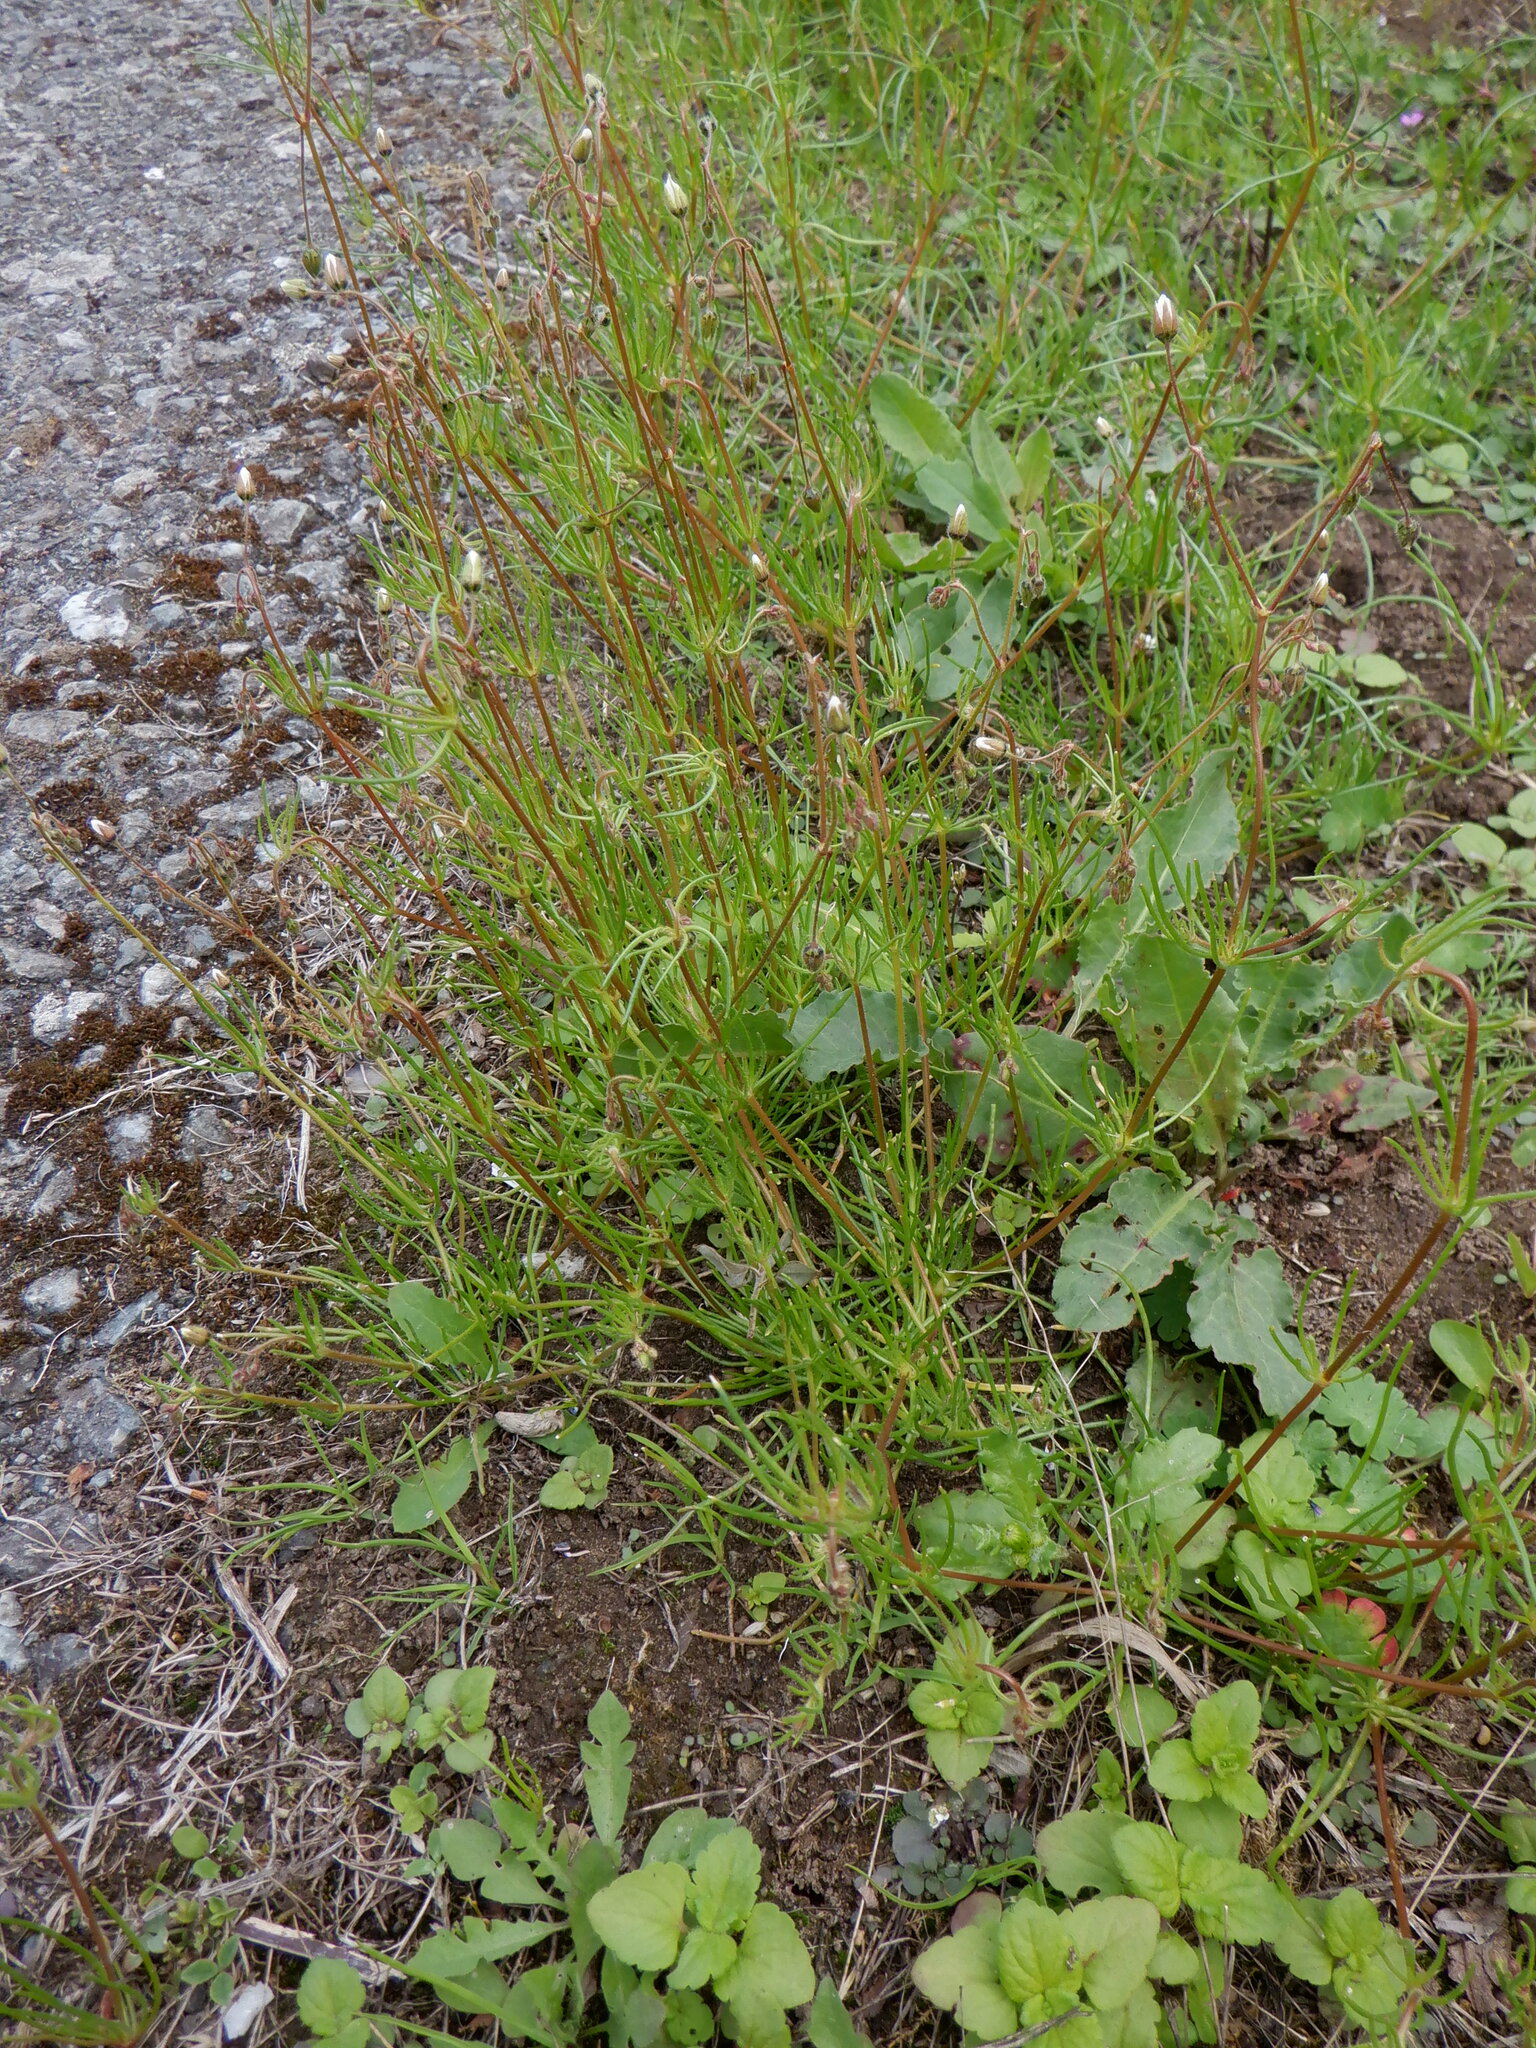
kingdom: Plantae
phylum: Tracheophyta
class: Magnoliopsida
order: Caryophyllales
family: Caryophyllaceae
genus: Spergula
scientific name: Spergula arvensis
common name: Corn spurrey
